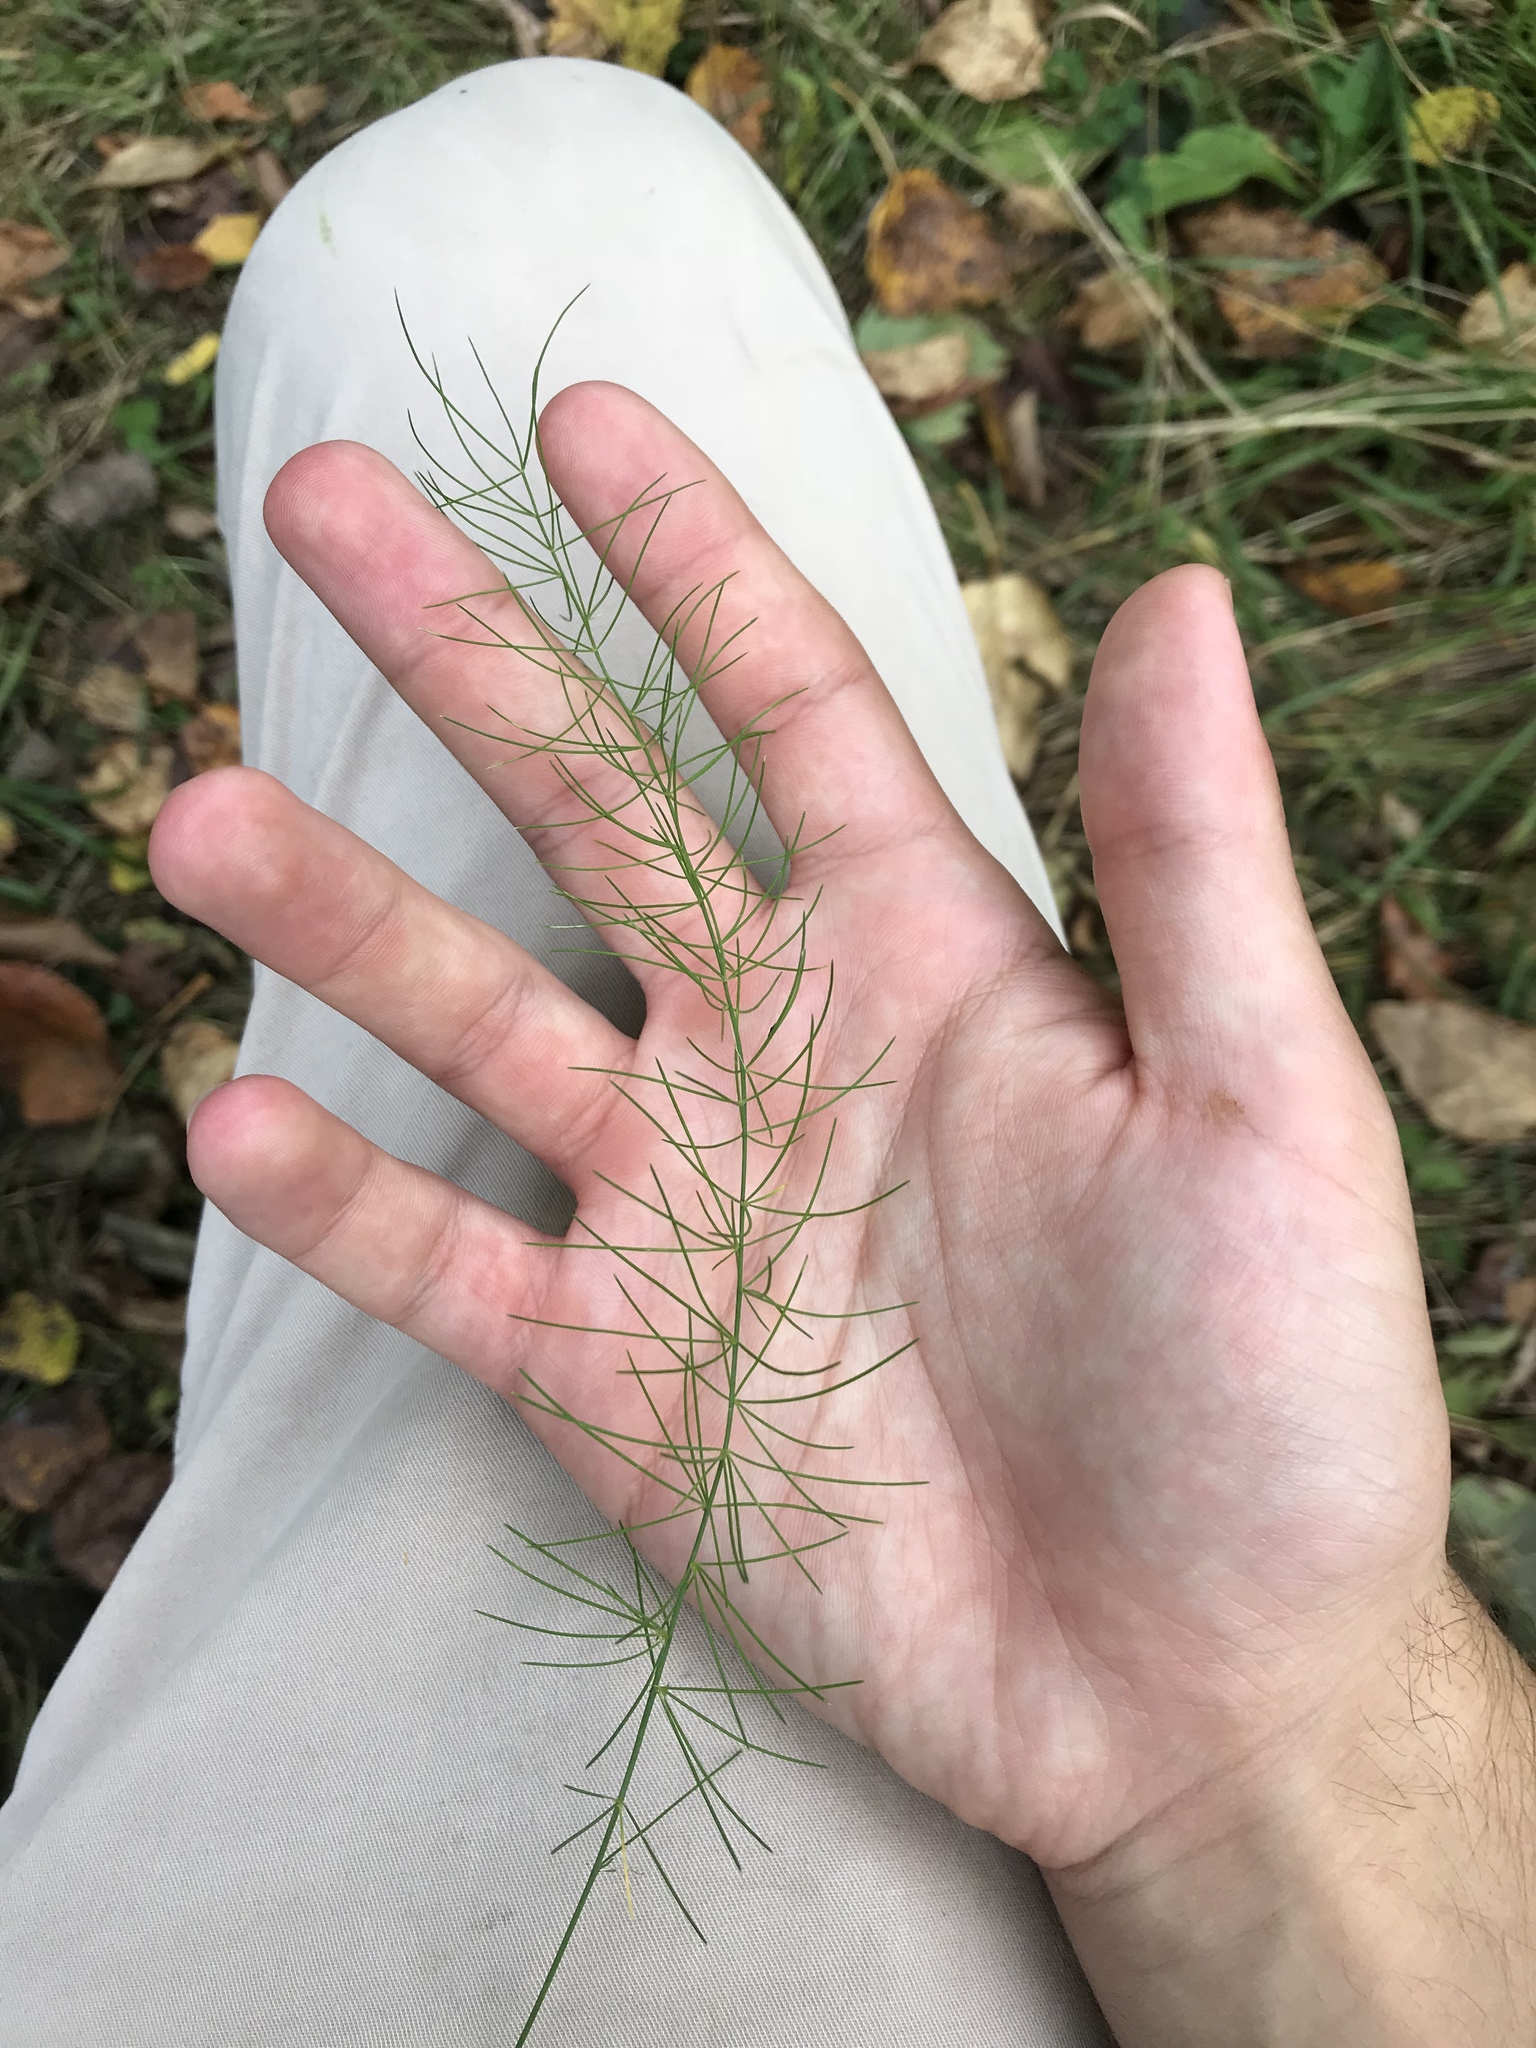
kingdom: Plantae
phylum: Tracheophyta
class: Liliopsida
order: Asparagales
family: Asparagaceae
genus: Asparagus
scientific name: Asparagus officinalis
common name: Garden asparagus
